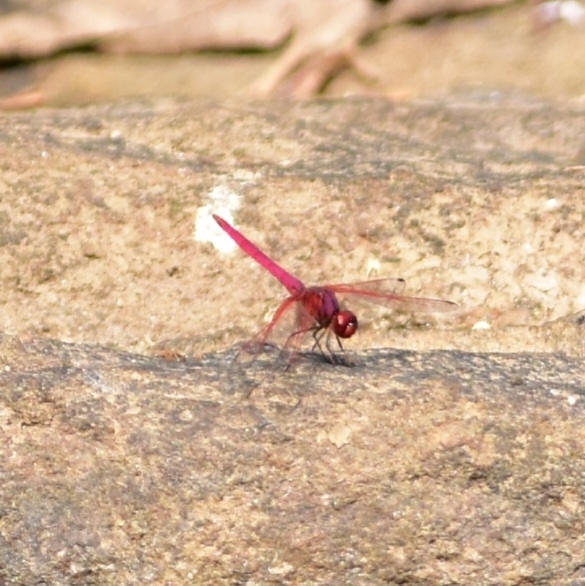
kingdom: Animalia
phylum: Arthropoda
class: Insecta
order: Odonata
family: Libellulidae
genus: Trithemis
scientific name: Trithemis aurora
